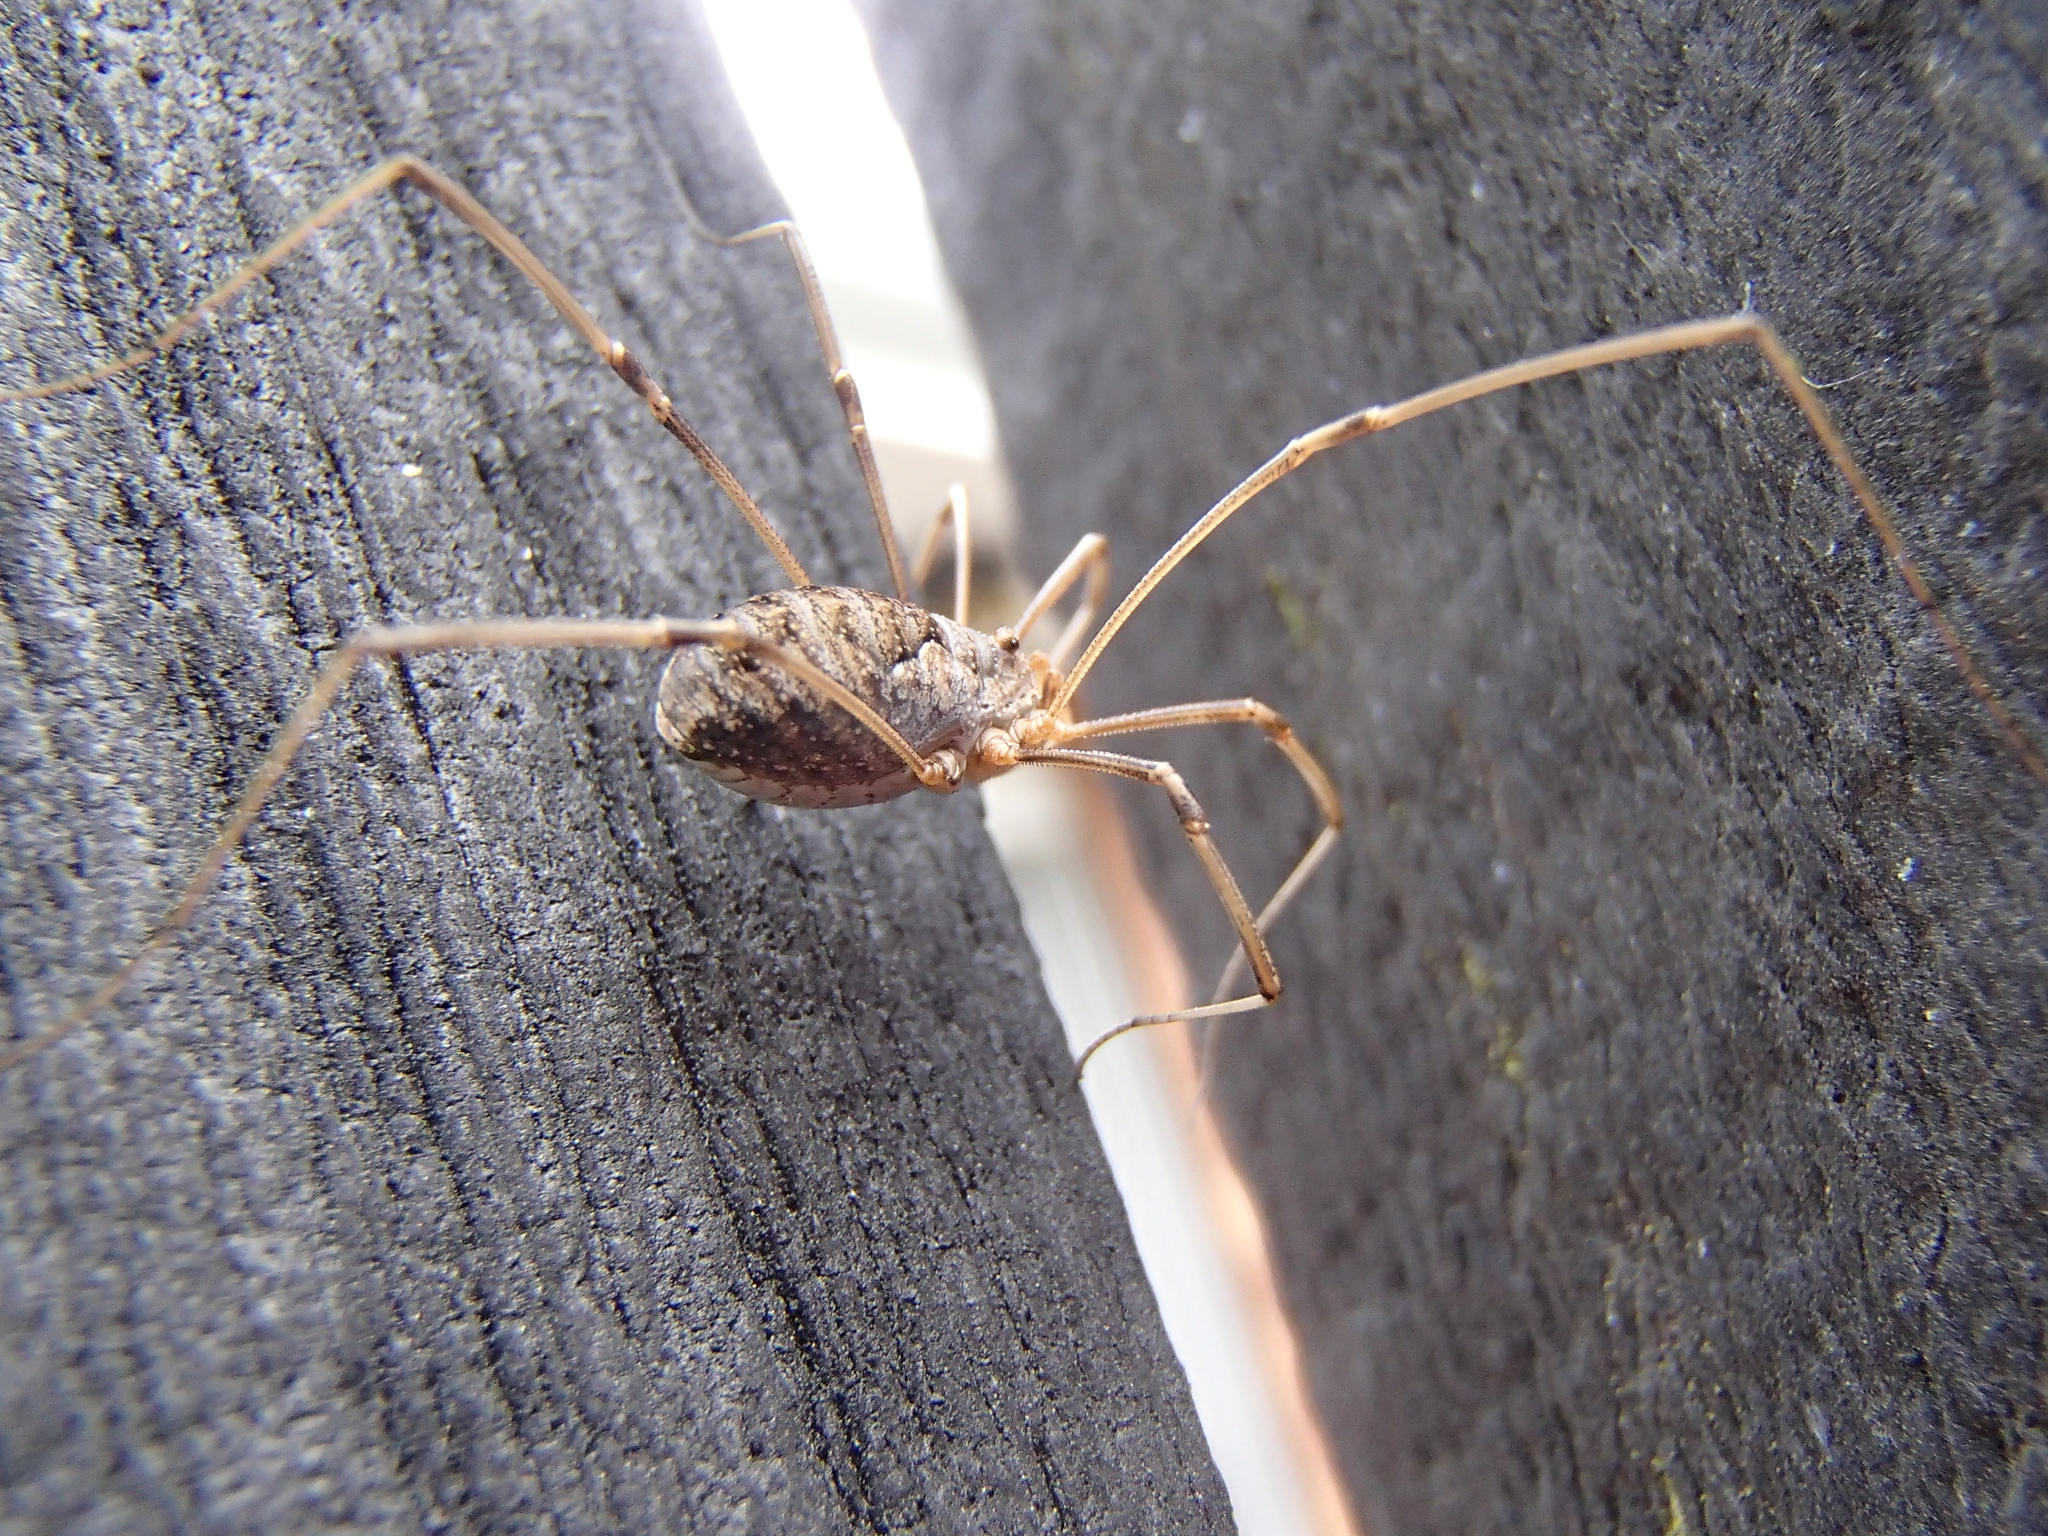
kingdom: Animalia
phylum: Arthropoda
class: Arachnida
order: Opiliones
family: Phalangiidae
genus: Phalangium
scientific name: Phalangium opilio
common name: Daddy longleg
